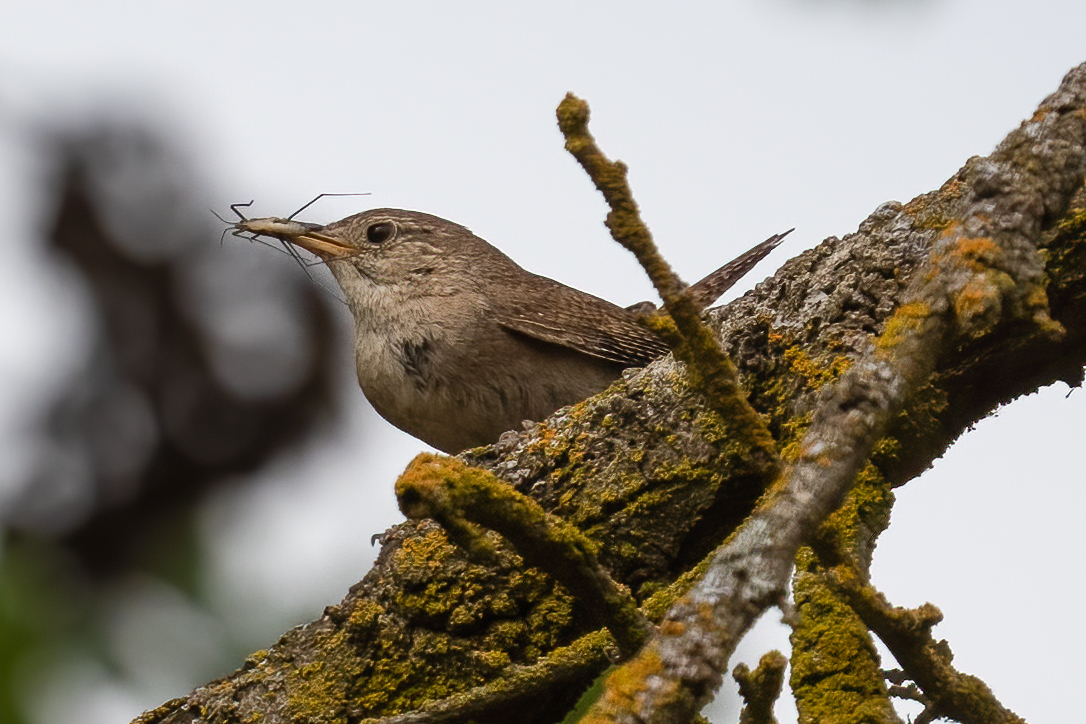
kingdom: Animalia
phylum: Chordata
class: Aves
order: Passeriformes
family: Troglodytidae
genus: Troglodytes
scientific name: Troglodytes aedon
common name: House wren
